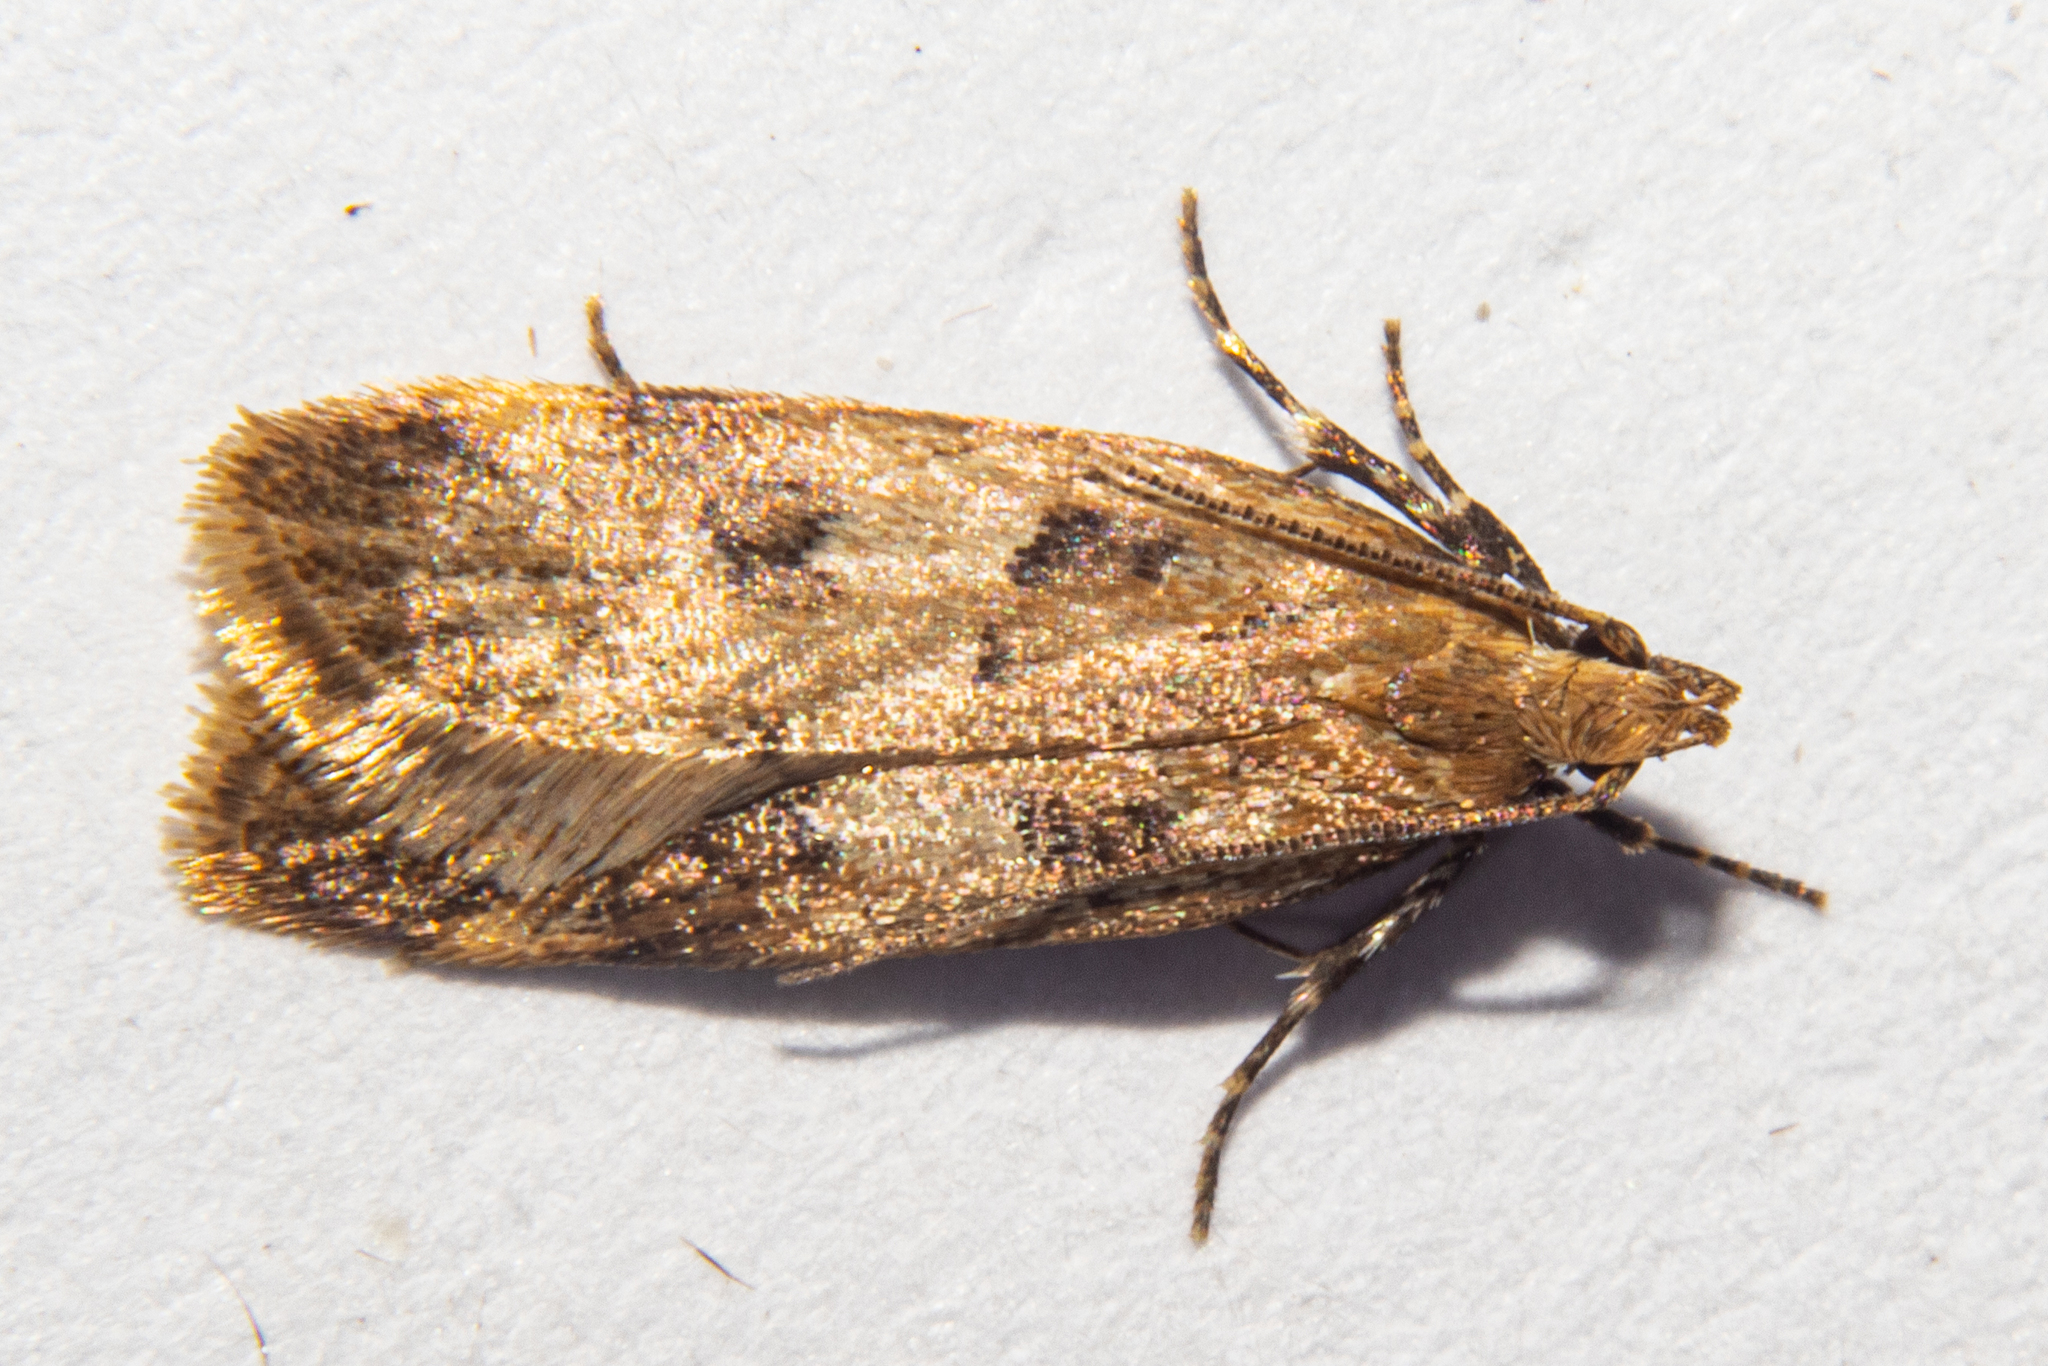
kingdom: Animalia
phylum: Arthropoda
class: Insecta
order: Lepidoptera
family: Oecophoridae
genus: Thamnosara
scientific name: Thamnosara sublitella
